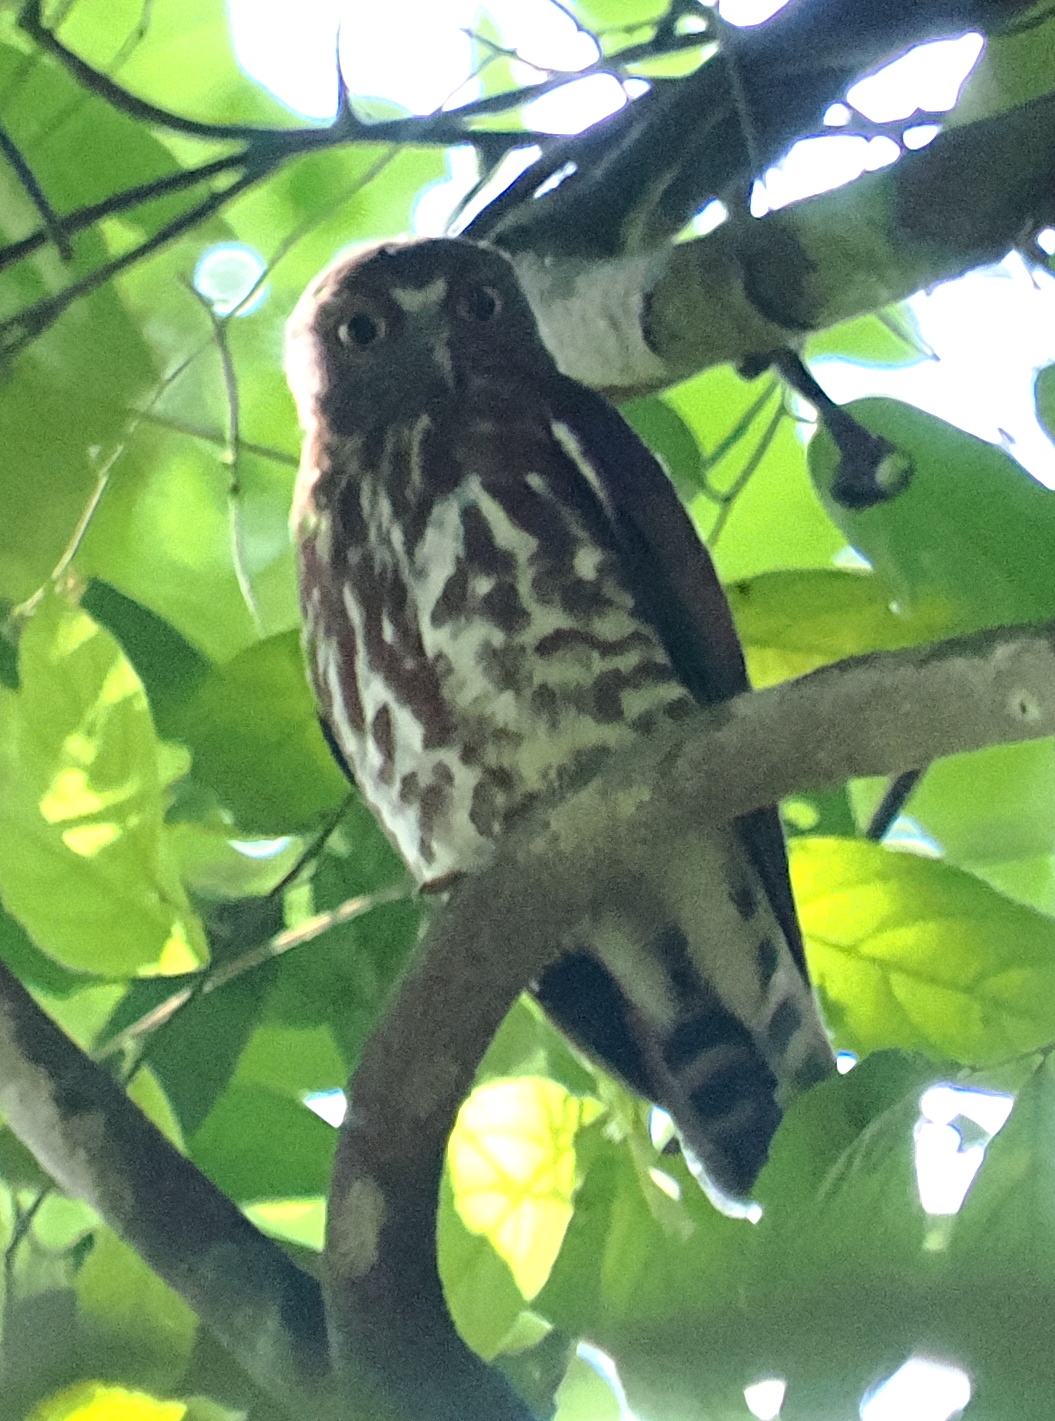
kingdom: Animalia
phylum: Chordata
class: Aves
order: Strigiformes
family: Strigidae
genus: Ninox
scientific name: Ninox scutulata
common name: Brown hawk-owl
